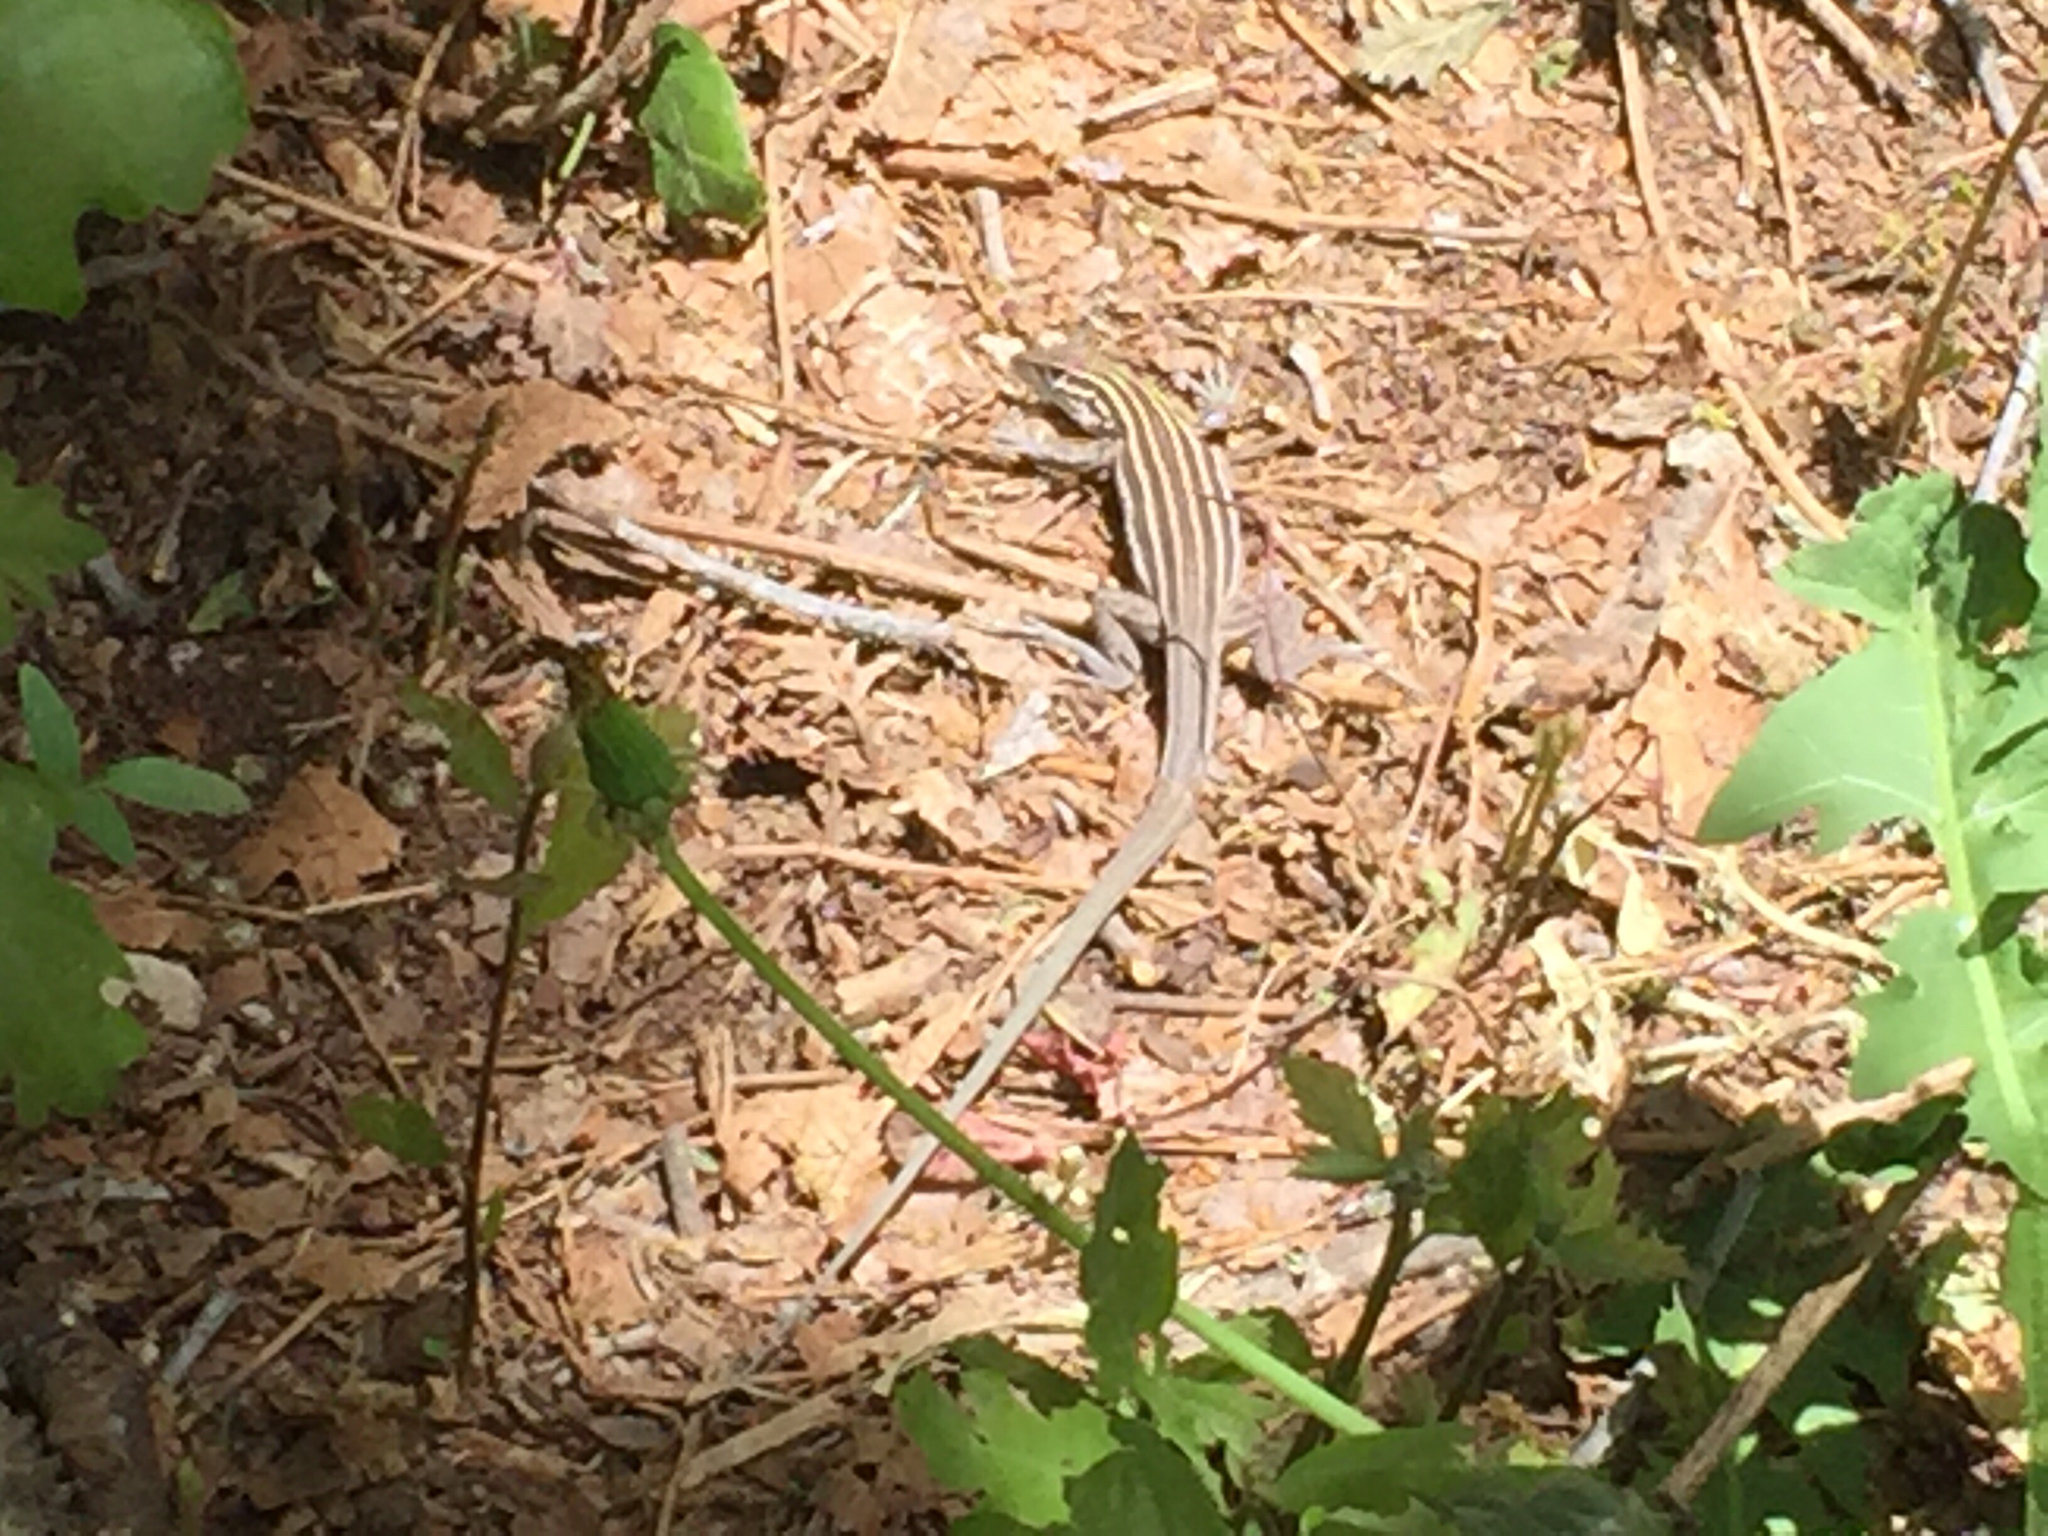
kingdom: Animalia
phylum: Chordata
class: Squamata
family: Teiidae
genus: Aspidoscelis
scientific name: Aspidoscelis velox
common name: Plateau striped whiptail
